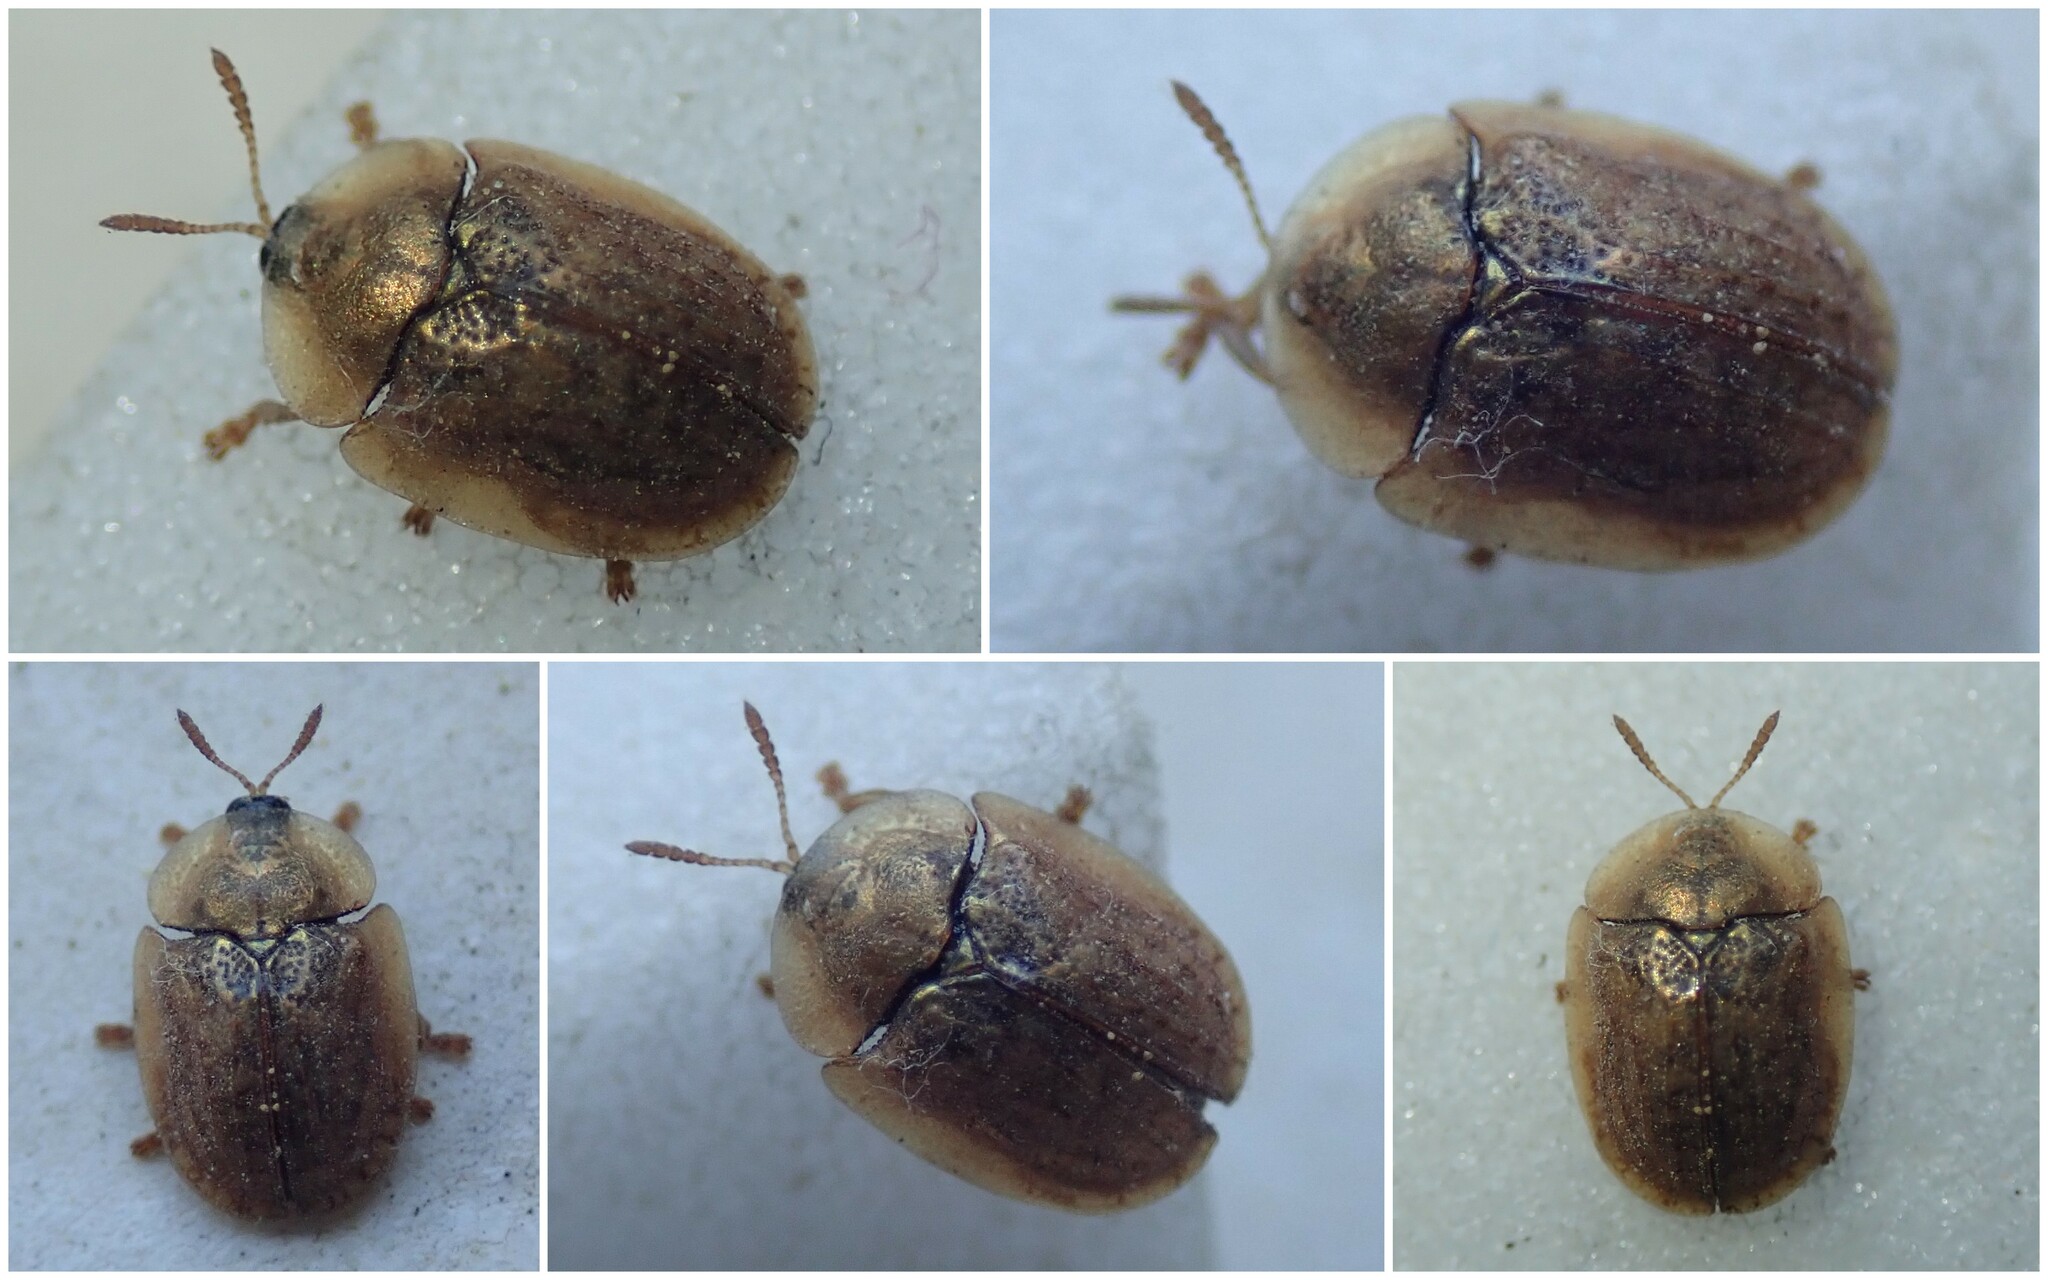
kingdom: Animalia
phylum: Arthropoda
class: Insecta
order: Coleoptera
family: Chrysomelidae
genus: Hypocassida
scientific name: Hypocassida subferruginea
